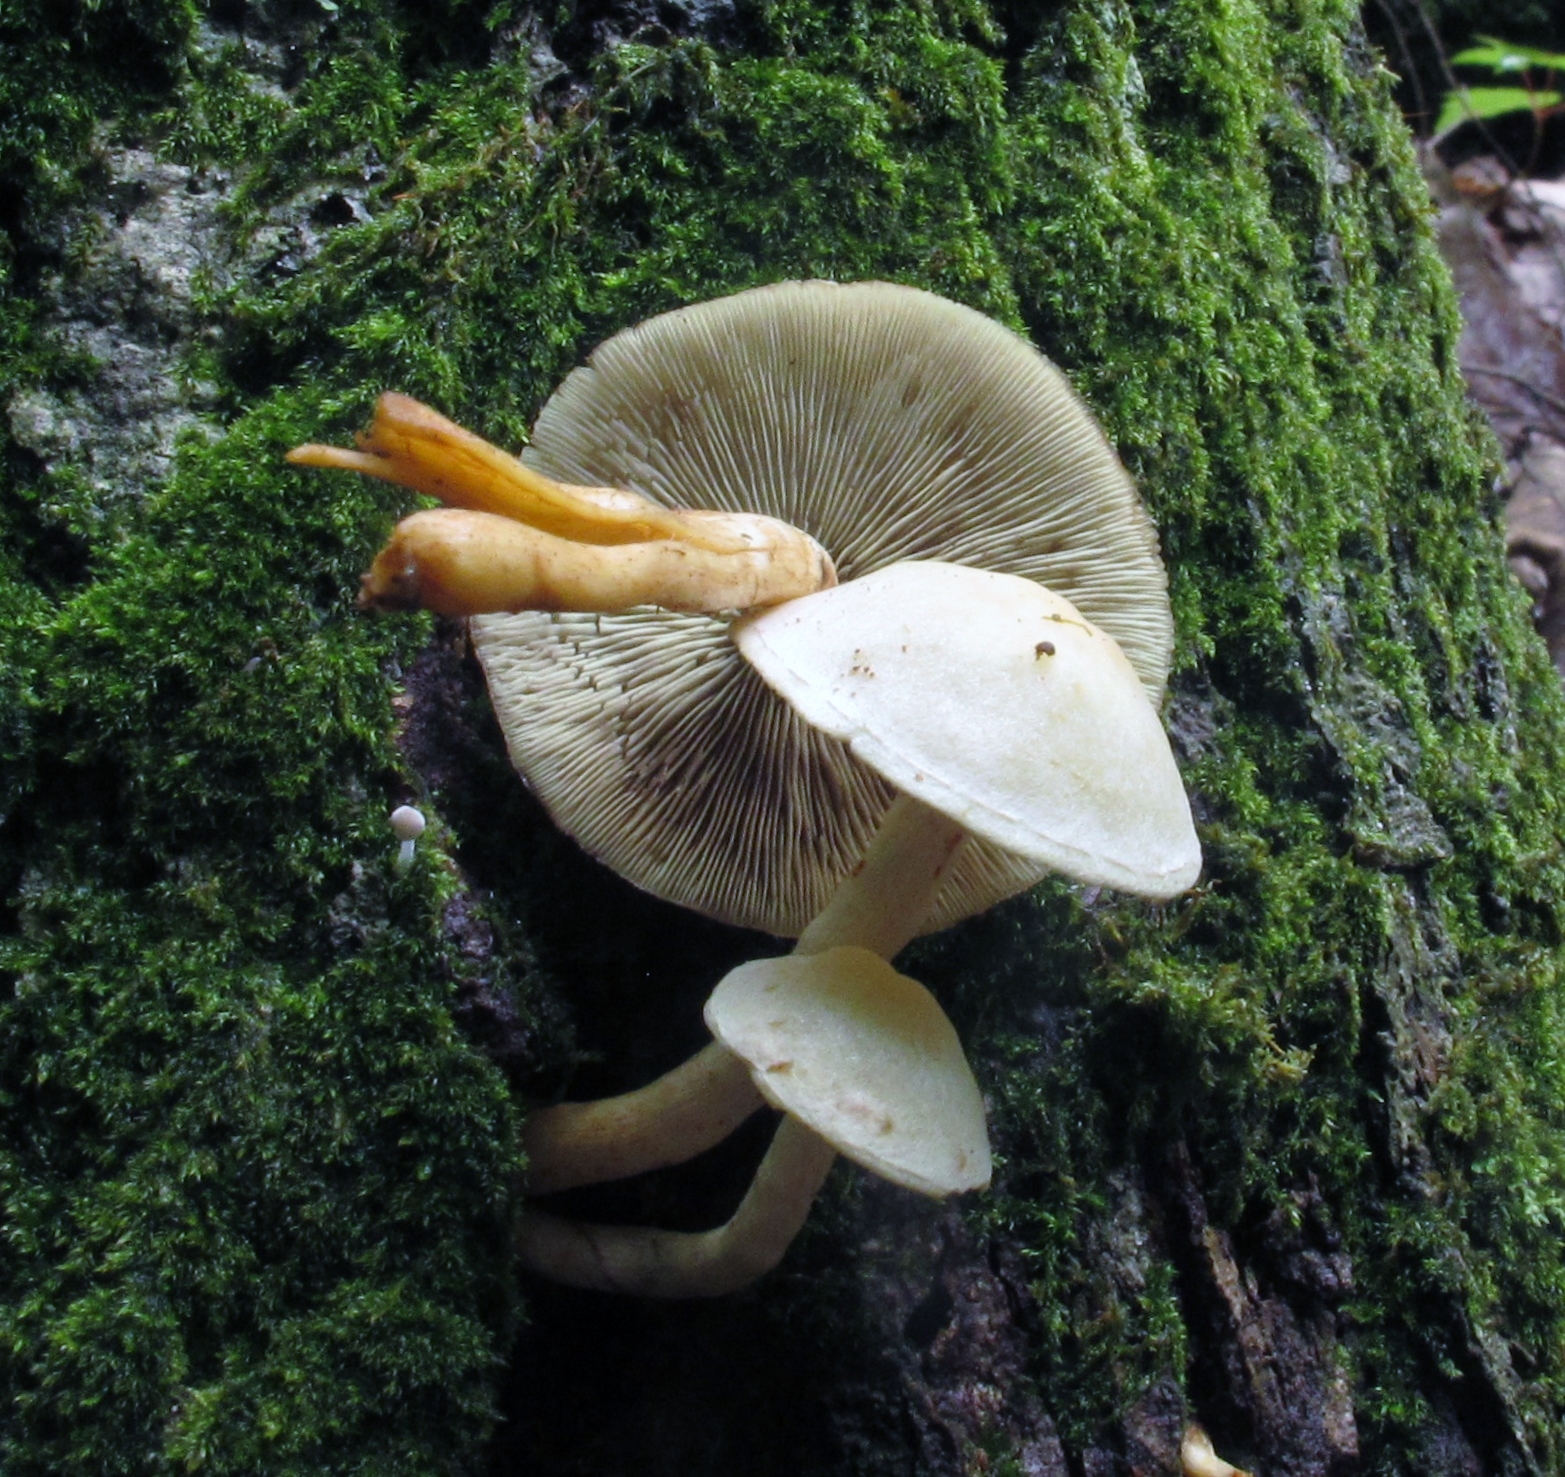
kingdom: Fungi
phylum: Basidiomycota
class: Agaricomycetes
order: Agaricales
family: Strophariaceae
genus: Hypholoma
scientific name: Hypholoma fasciculare
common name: Sulphur tuft
